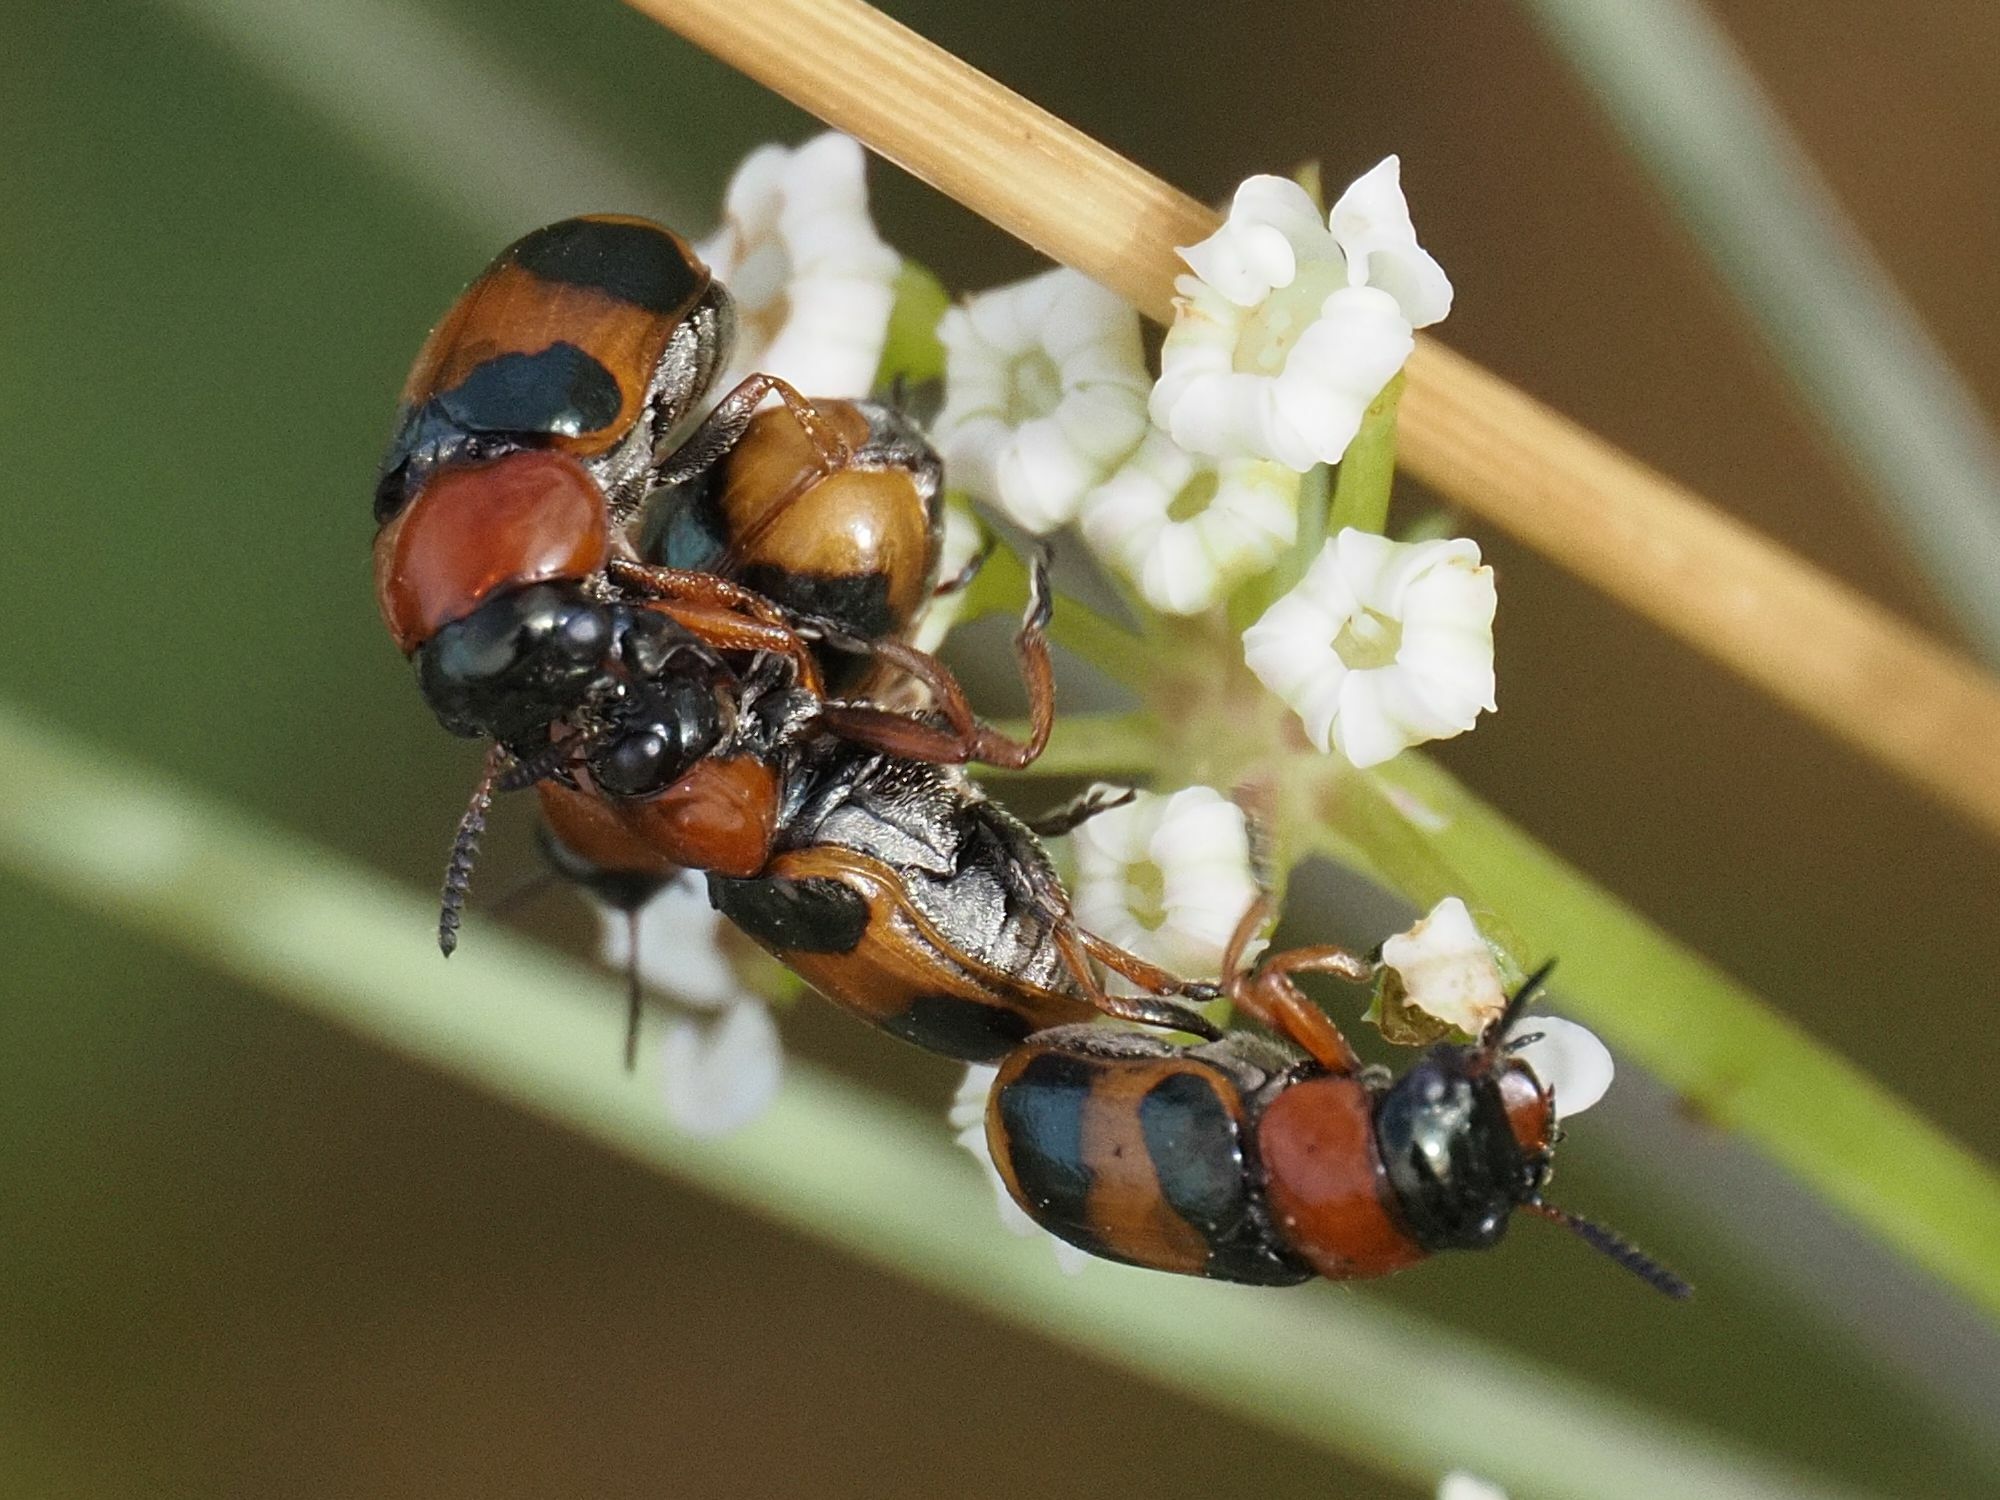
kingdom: Animalia
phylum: Arthropoda
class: Insecta
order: Coleoptera
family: Chrysomelidae
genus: Coptocephala
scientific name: Coptocephala unifasciata
